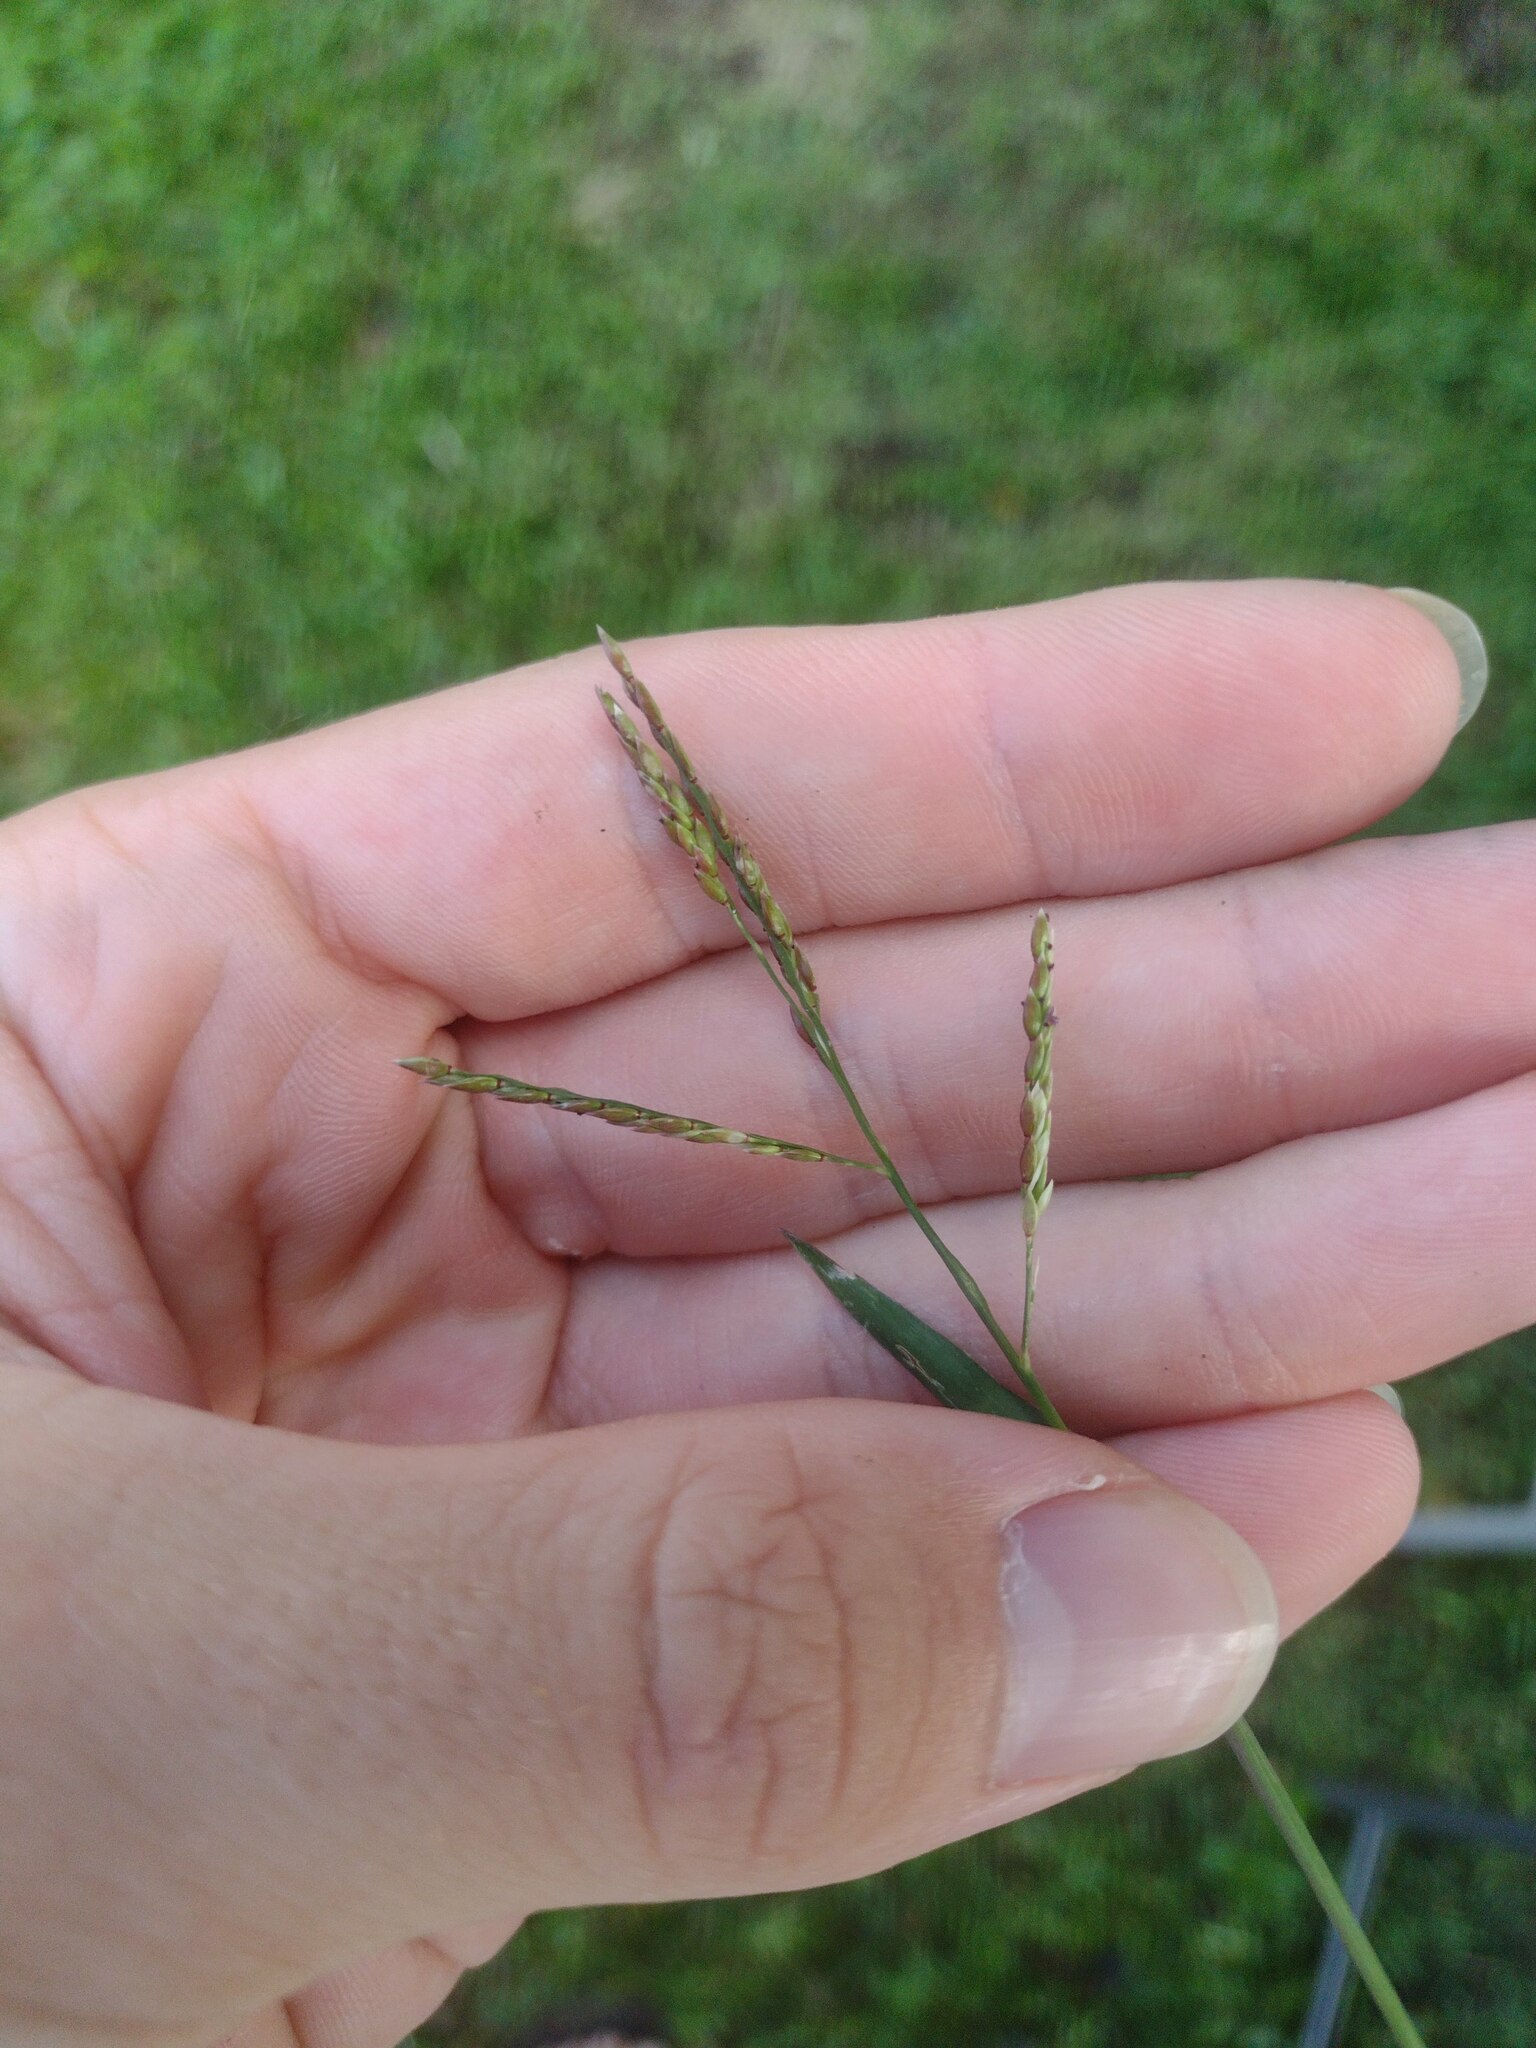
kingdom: Plantae
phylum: Tracheophyta
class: Liliopsida
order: Poales
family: Poaceae
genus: Eriochloa
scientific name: Eriochloa procera
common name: Spring grass
